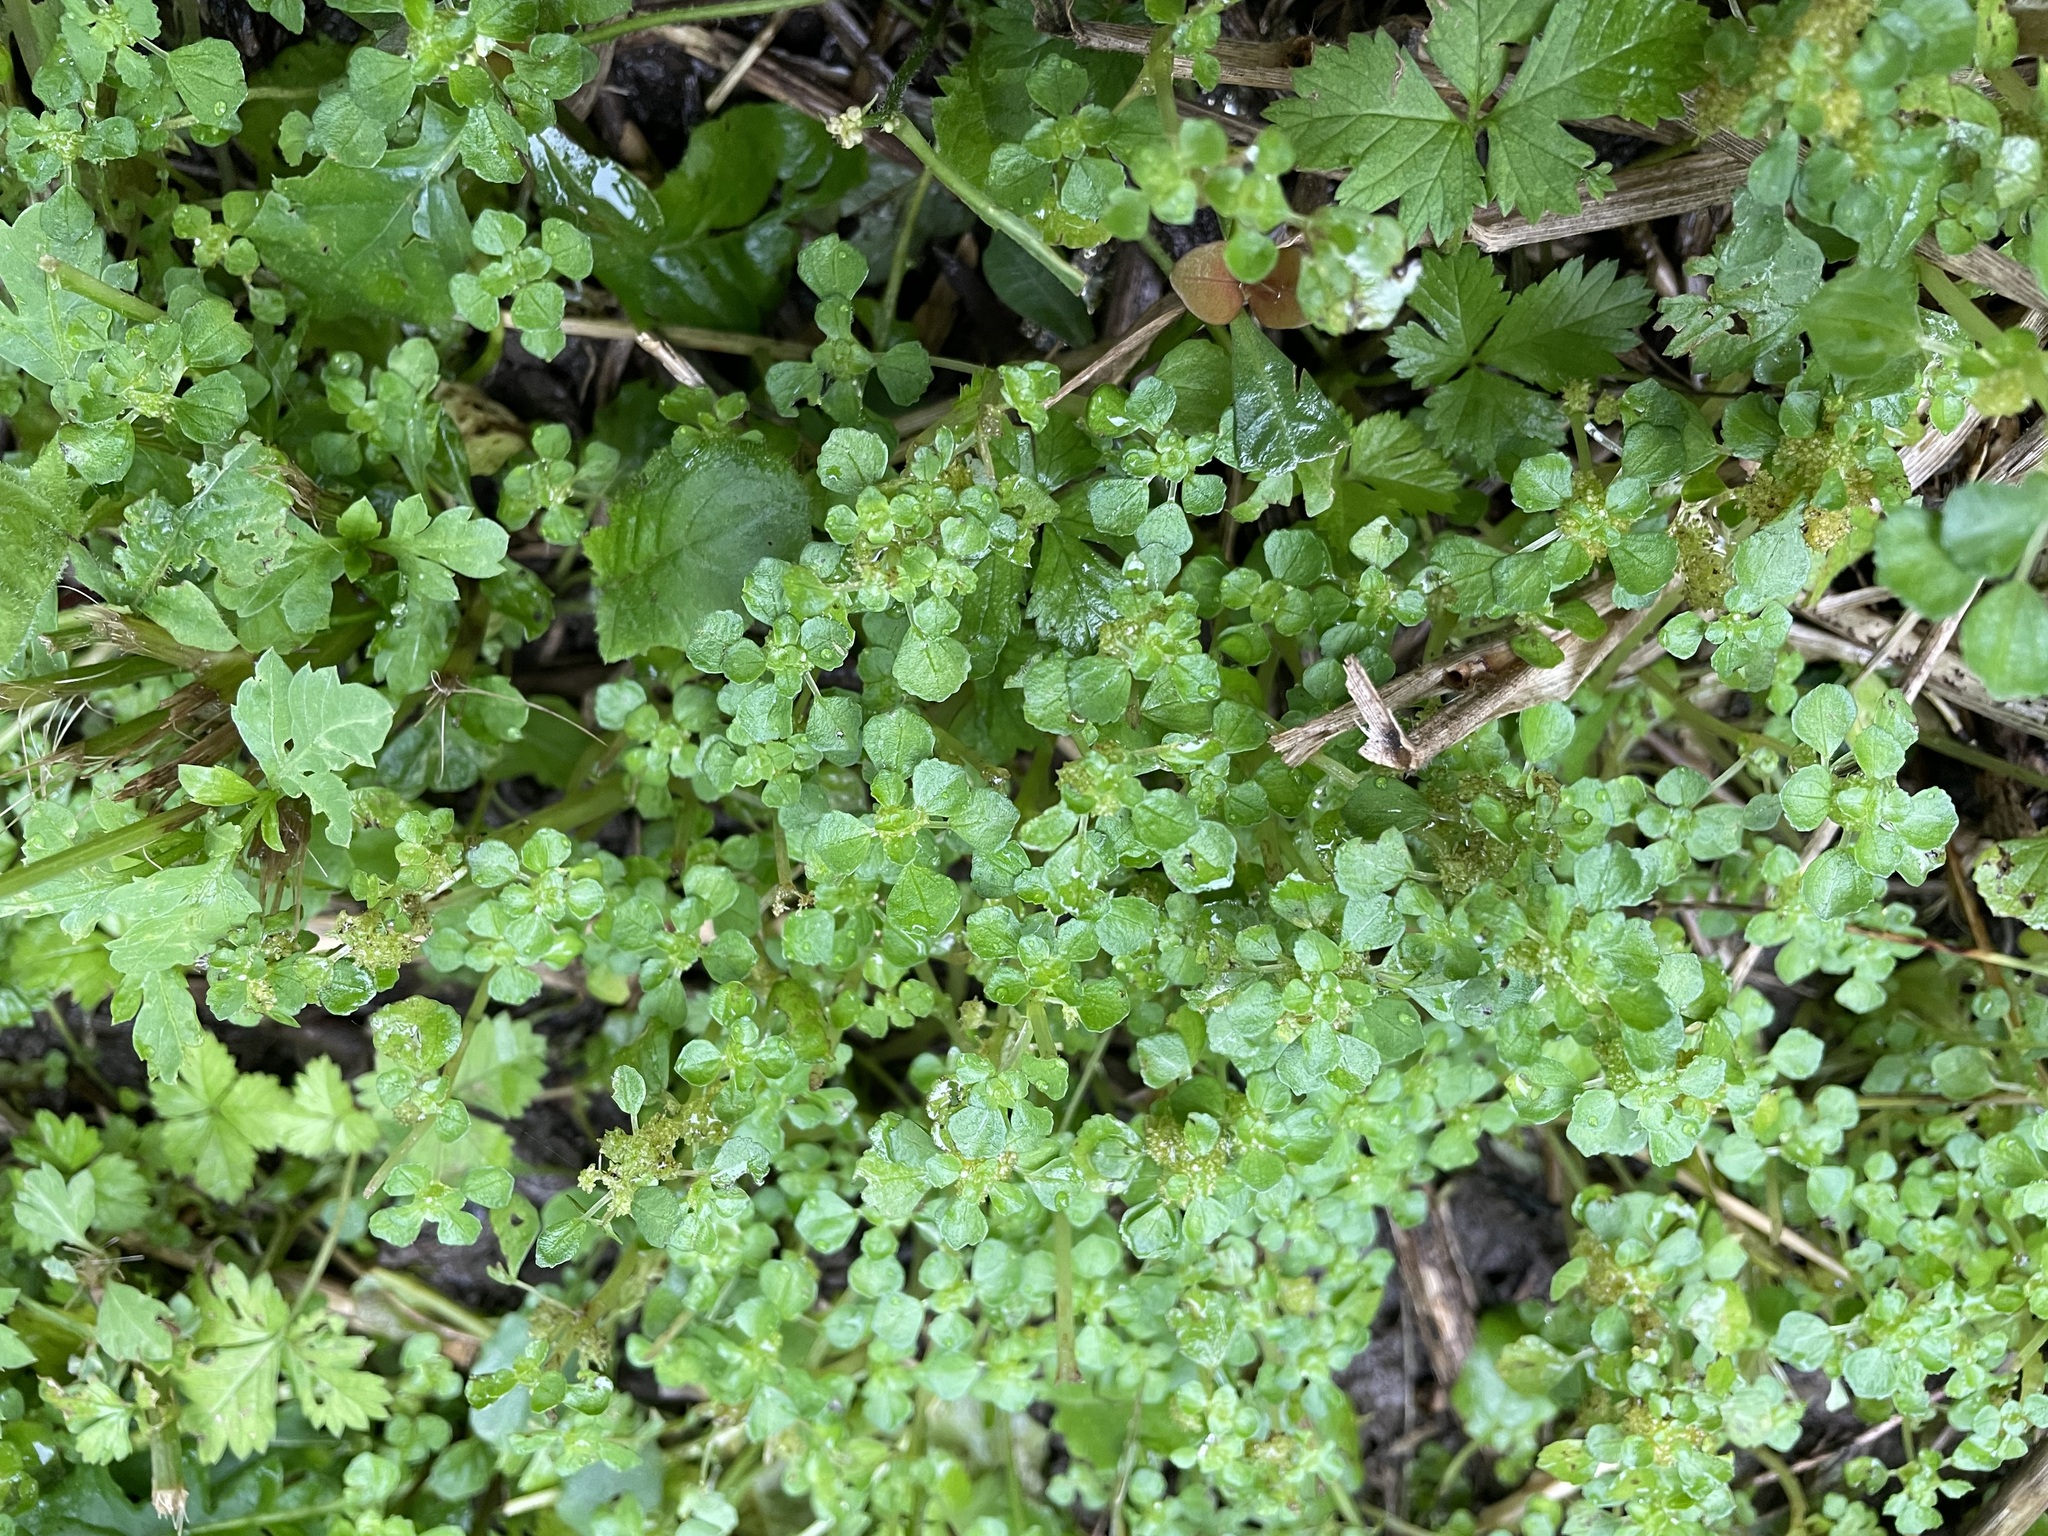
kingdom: Plantae
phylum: Tracheophyta
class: Magnoliopsida
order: Rosales
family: Urticaceae
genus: Pilea
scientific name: Pilea peploides
